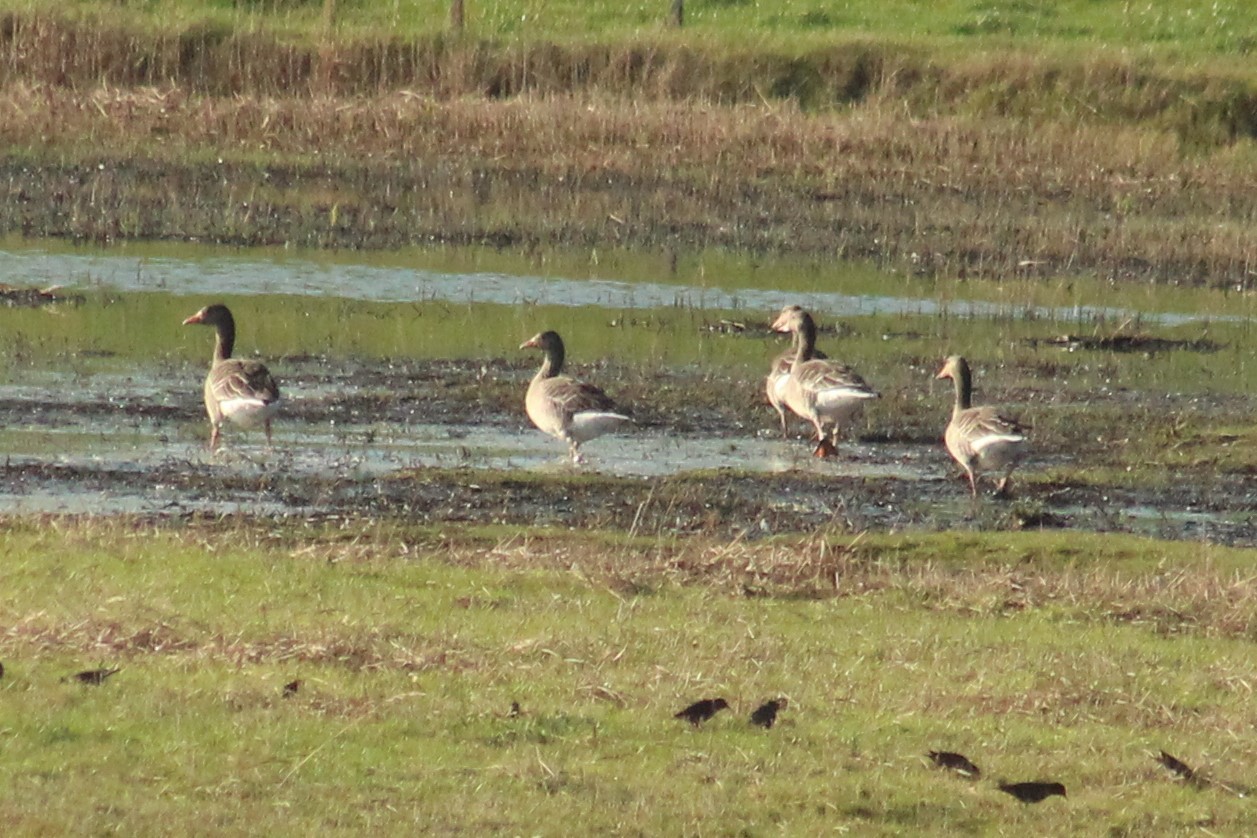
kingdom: Animalia
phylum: Chordata
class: Aves
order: Anseriformes
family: Anatidae
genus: Anser
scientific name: Anser anser
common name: Greylag goose
